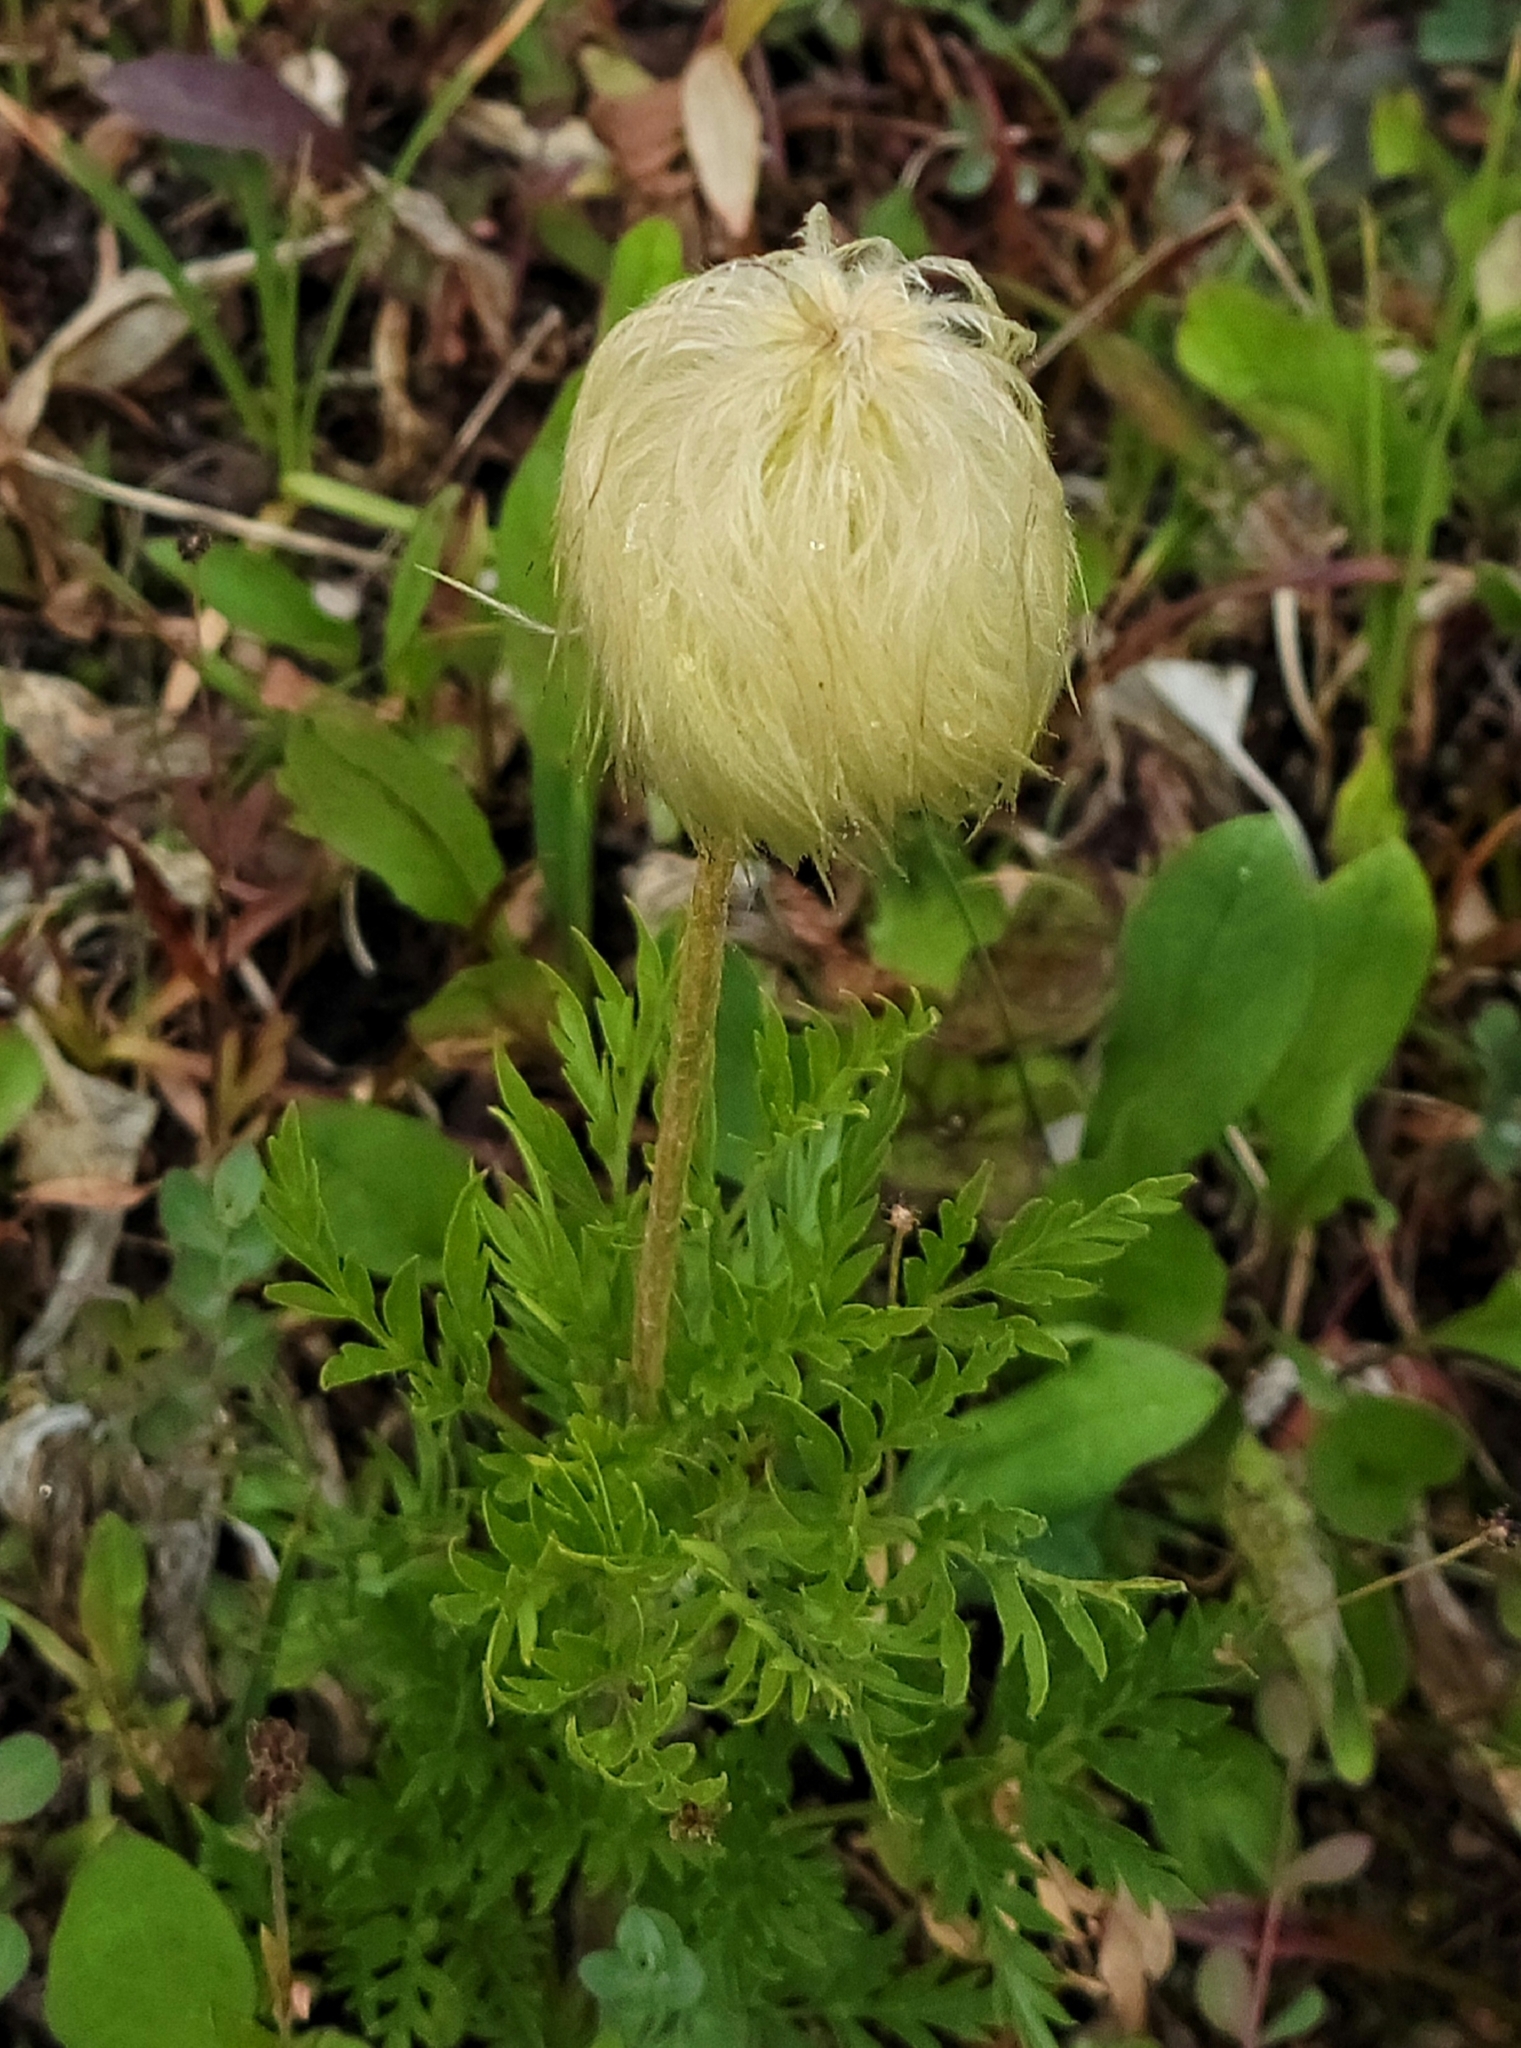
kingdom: Plantae
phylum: Tracheophyta
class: Magnoliopsida
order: Ranunculales
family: Ranunculaceae
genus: Pulsatilla
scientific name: Pulsatilla occidentalis
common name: Mountain pasqueflower
